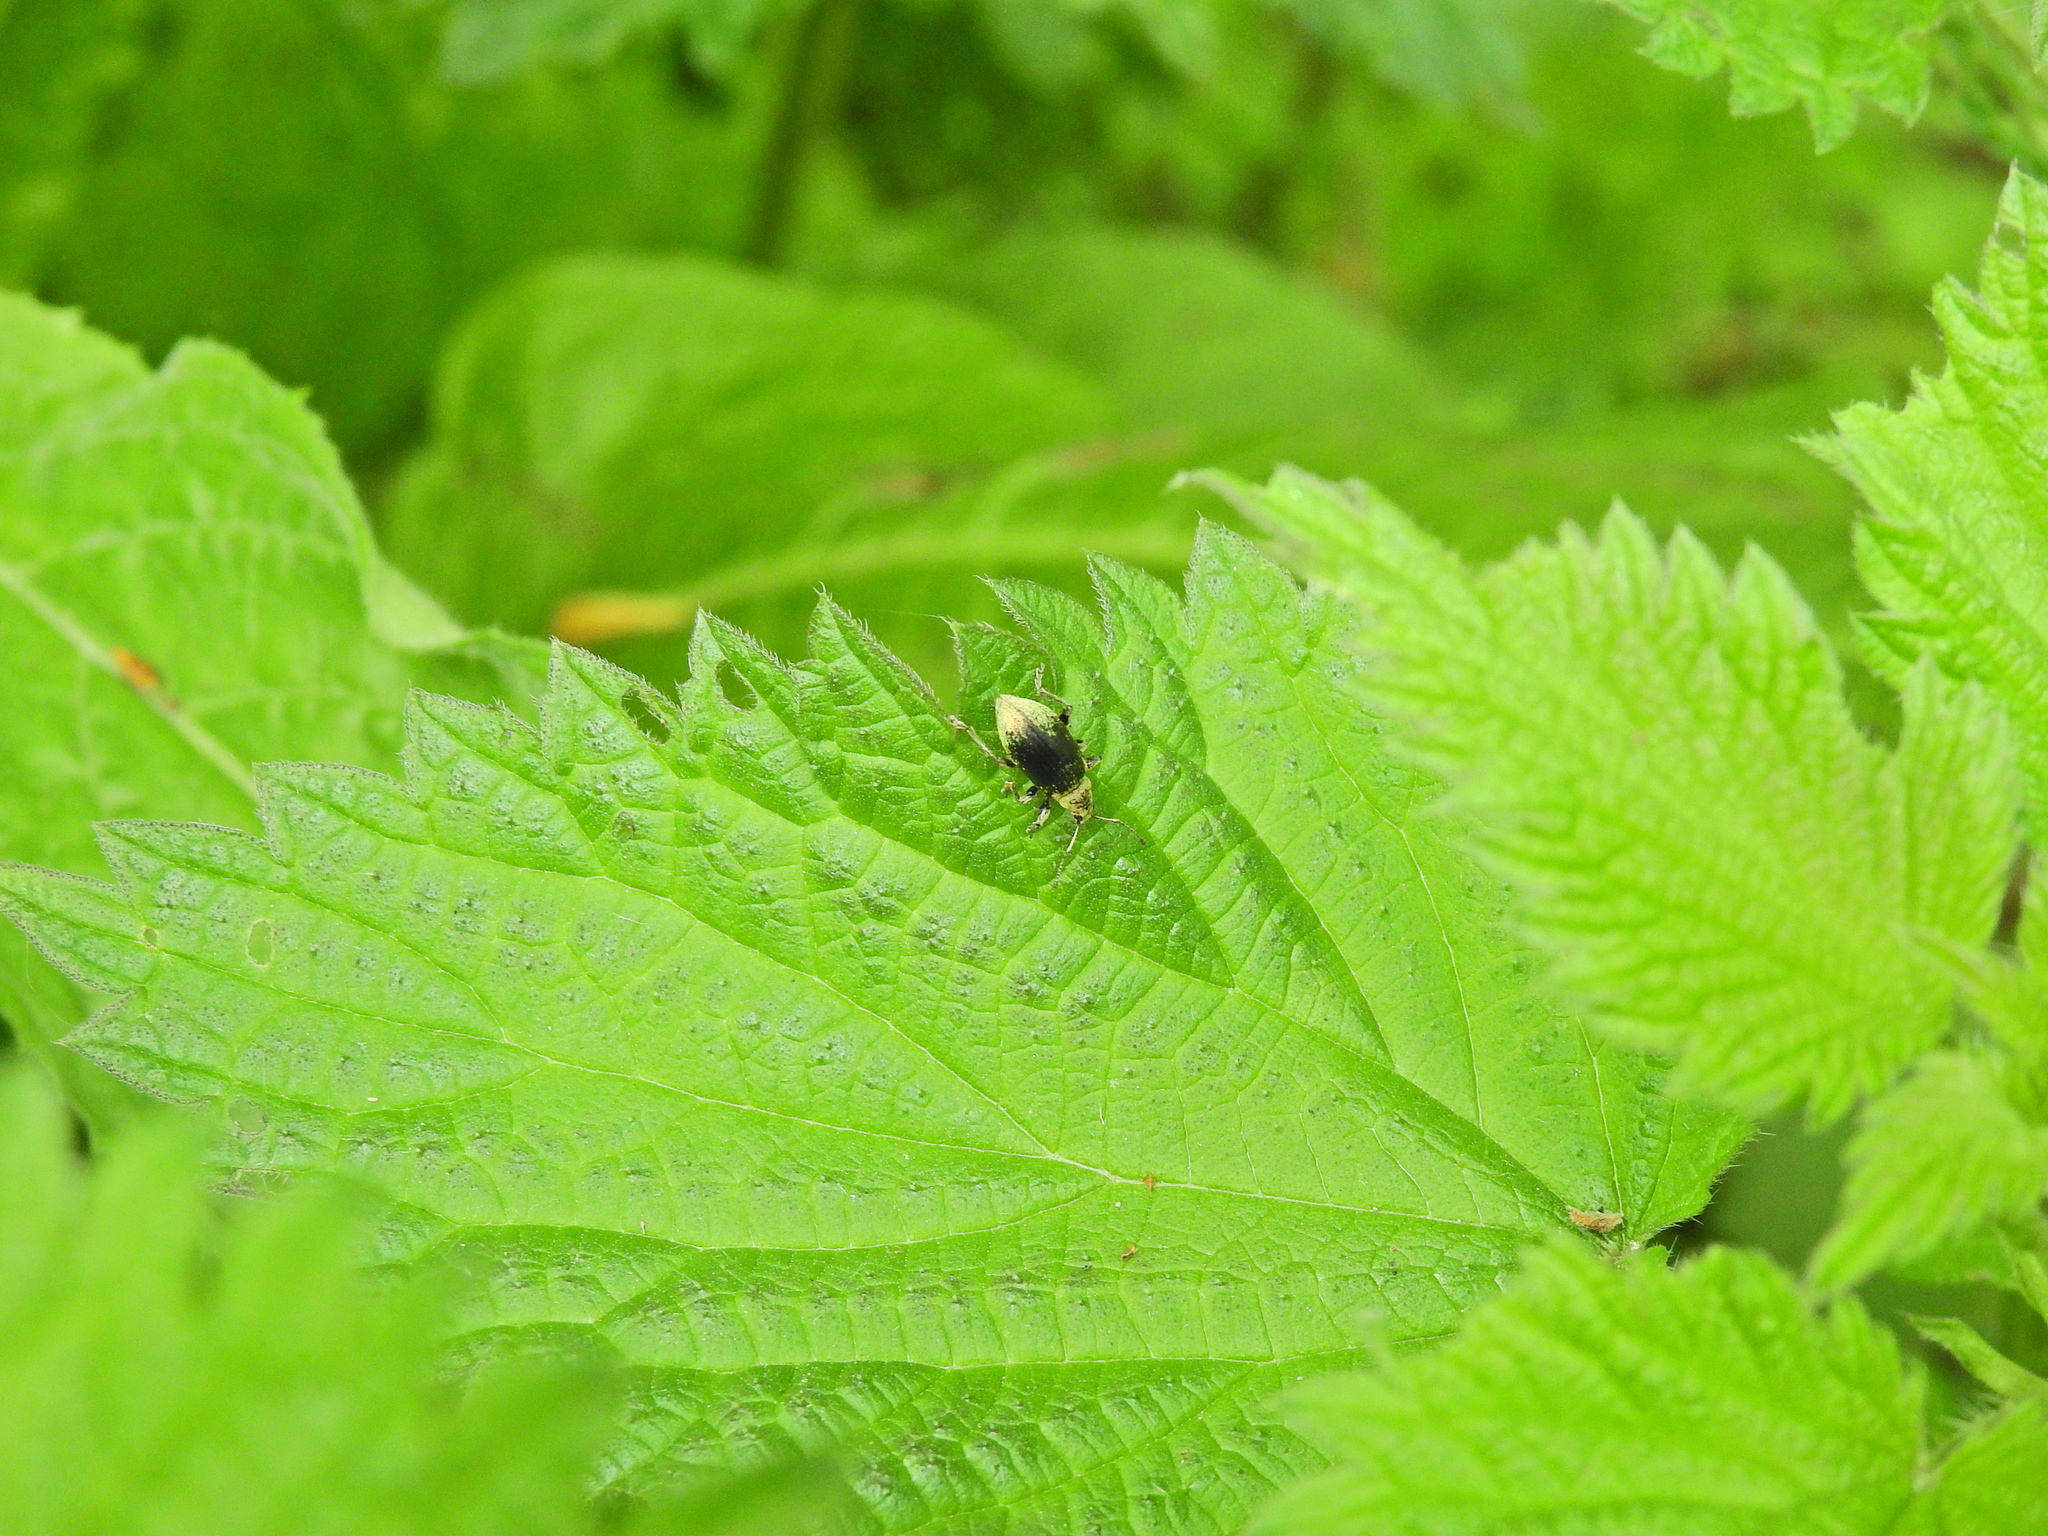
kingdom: Animalia
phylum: Arthropoda
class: Insecta
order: Coleoptera
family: Curculionidae
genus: Phyllobius
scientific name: Phyllobius pomaceus
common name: Green nettle weevil
